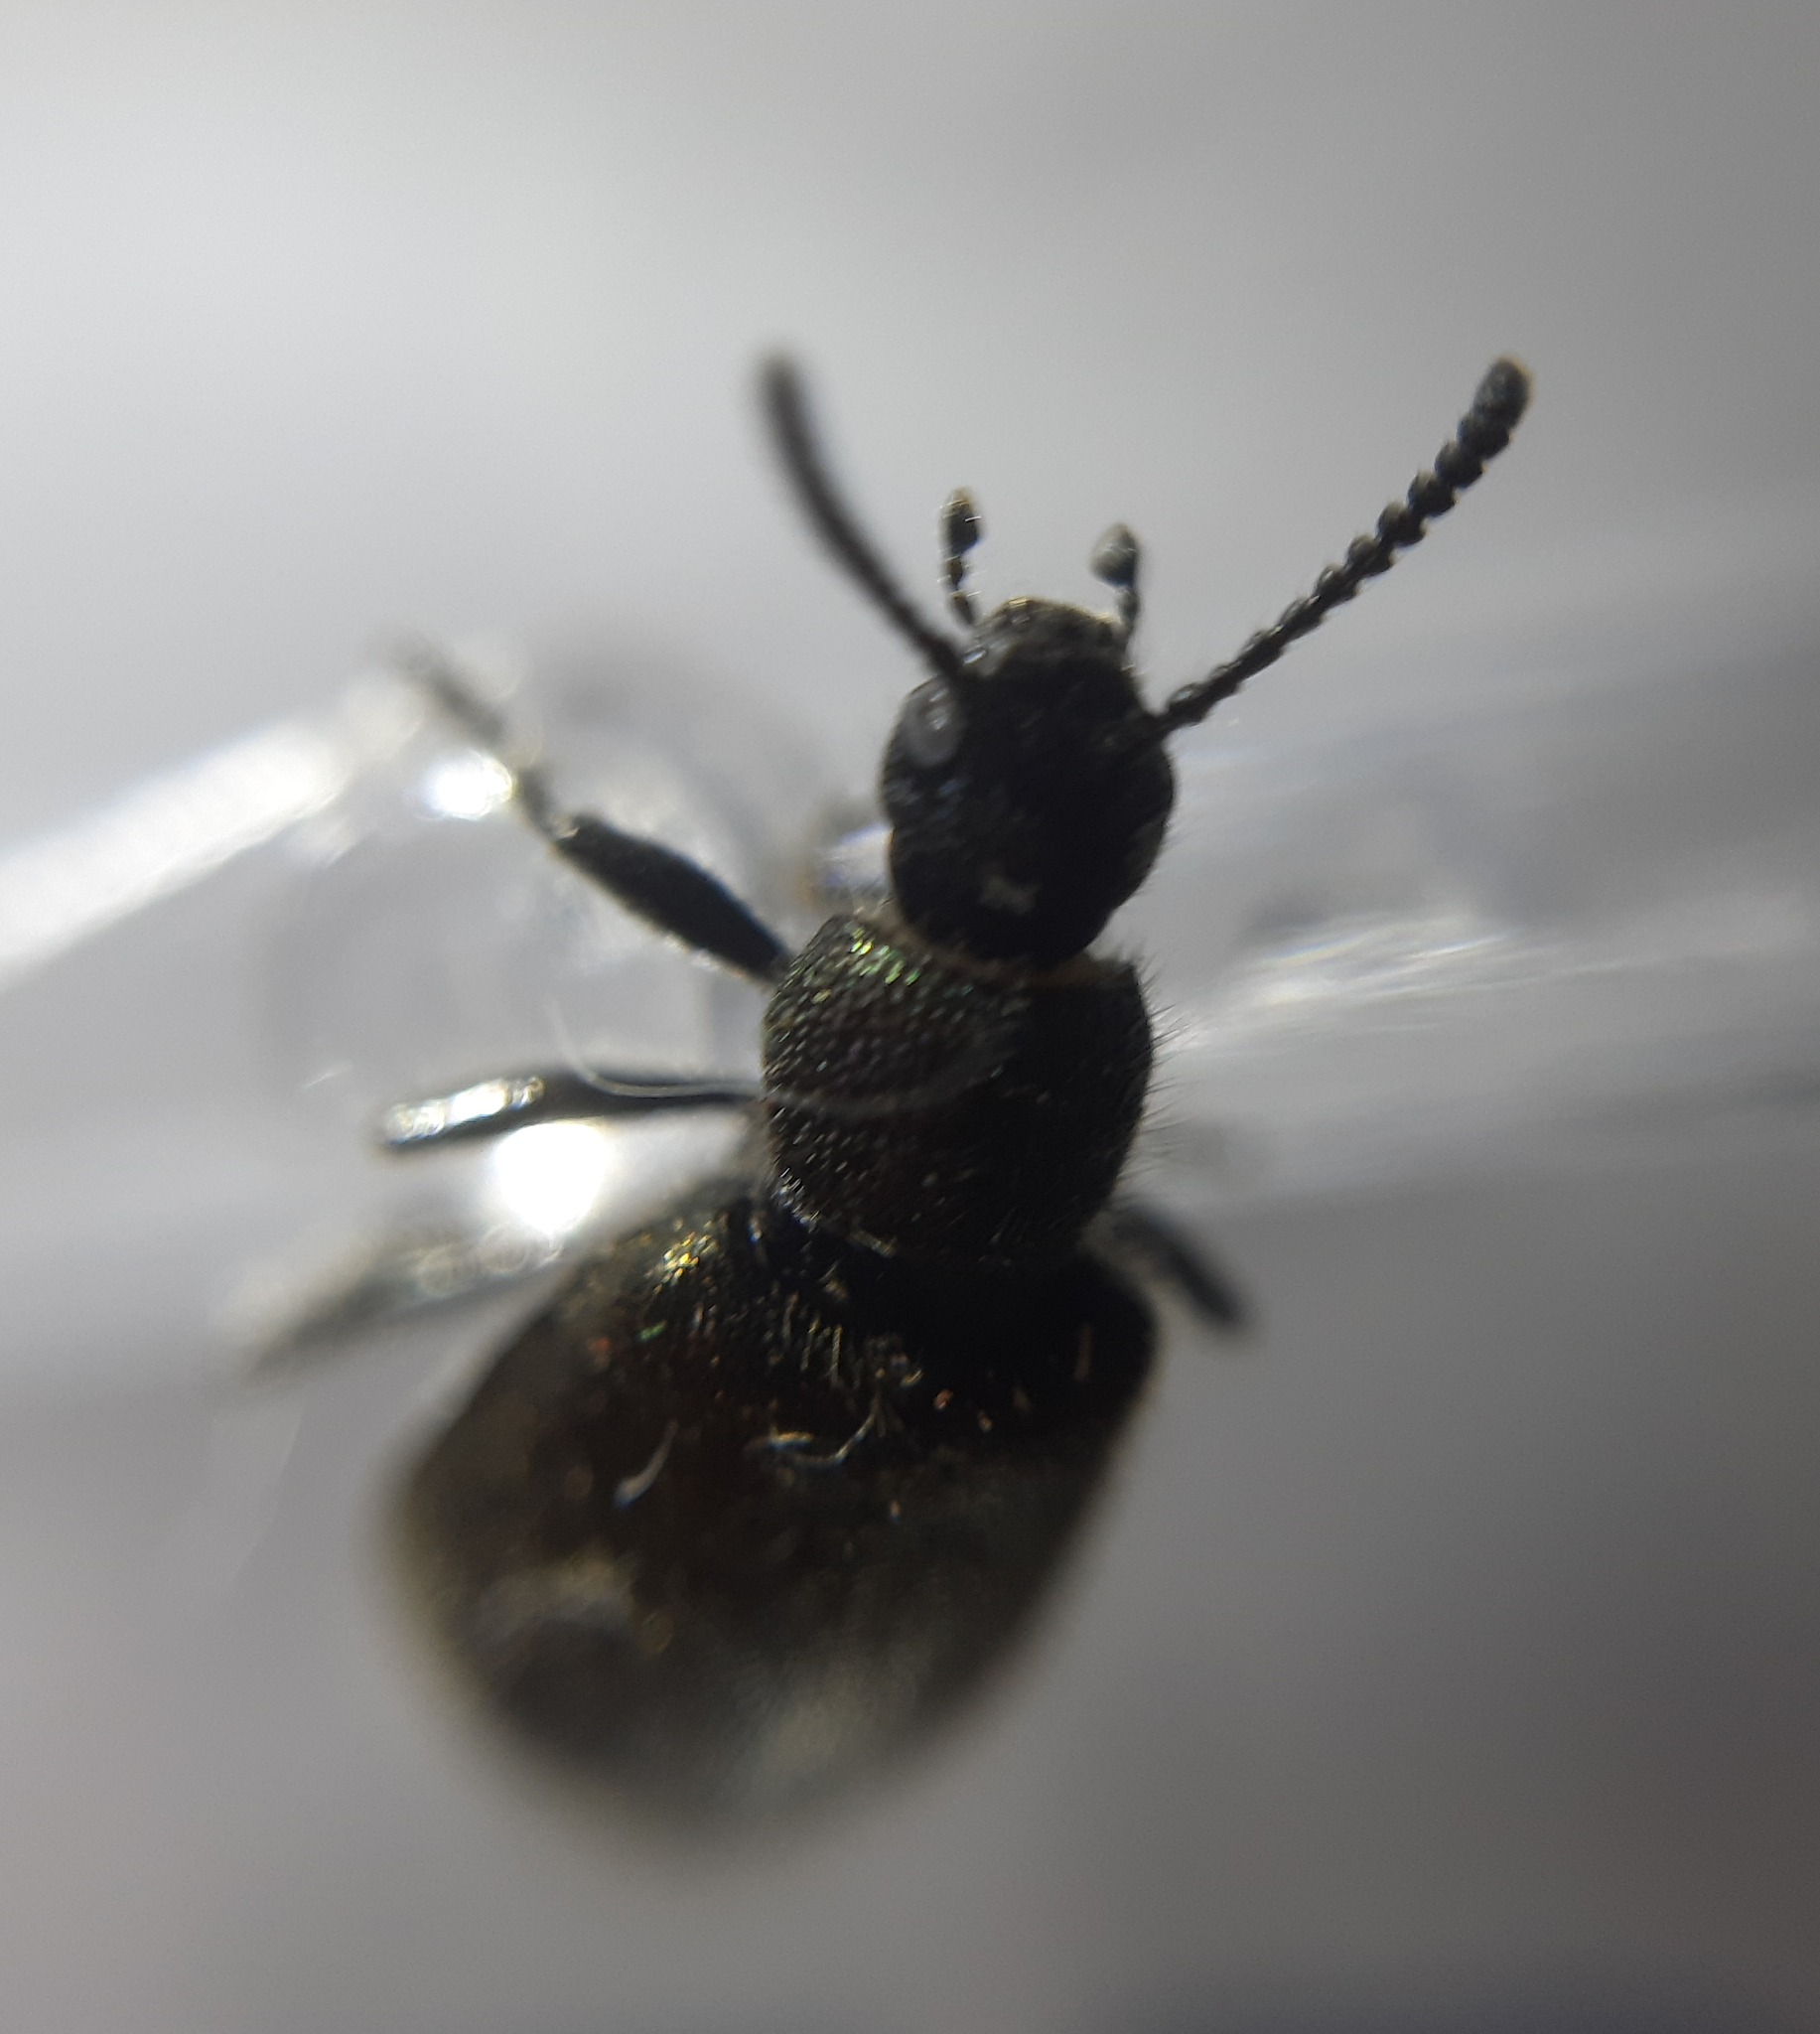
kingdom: Animalia
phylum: Arthropoda
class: Insecta
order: Coleoptera
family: Tenebrionidae
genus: Lagria
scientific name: Lagria villosa
